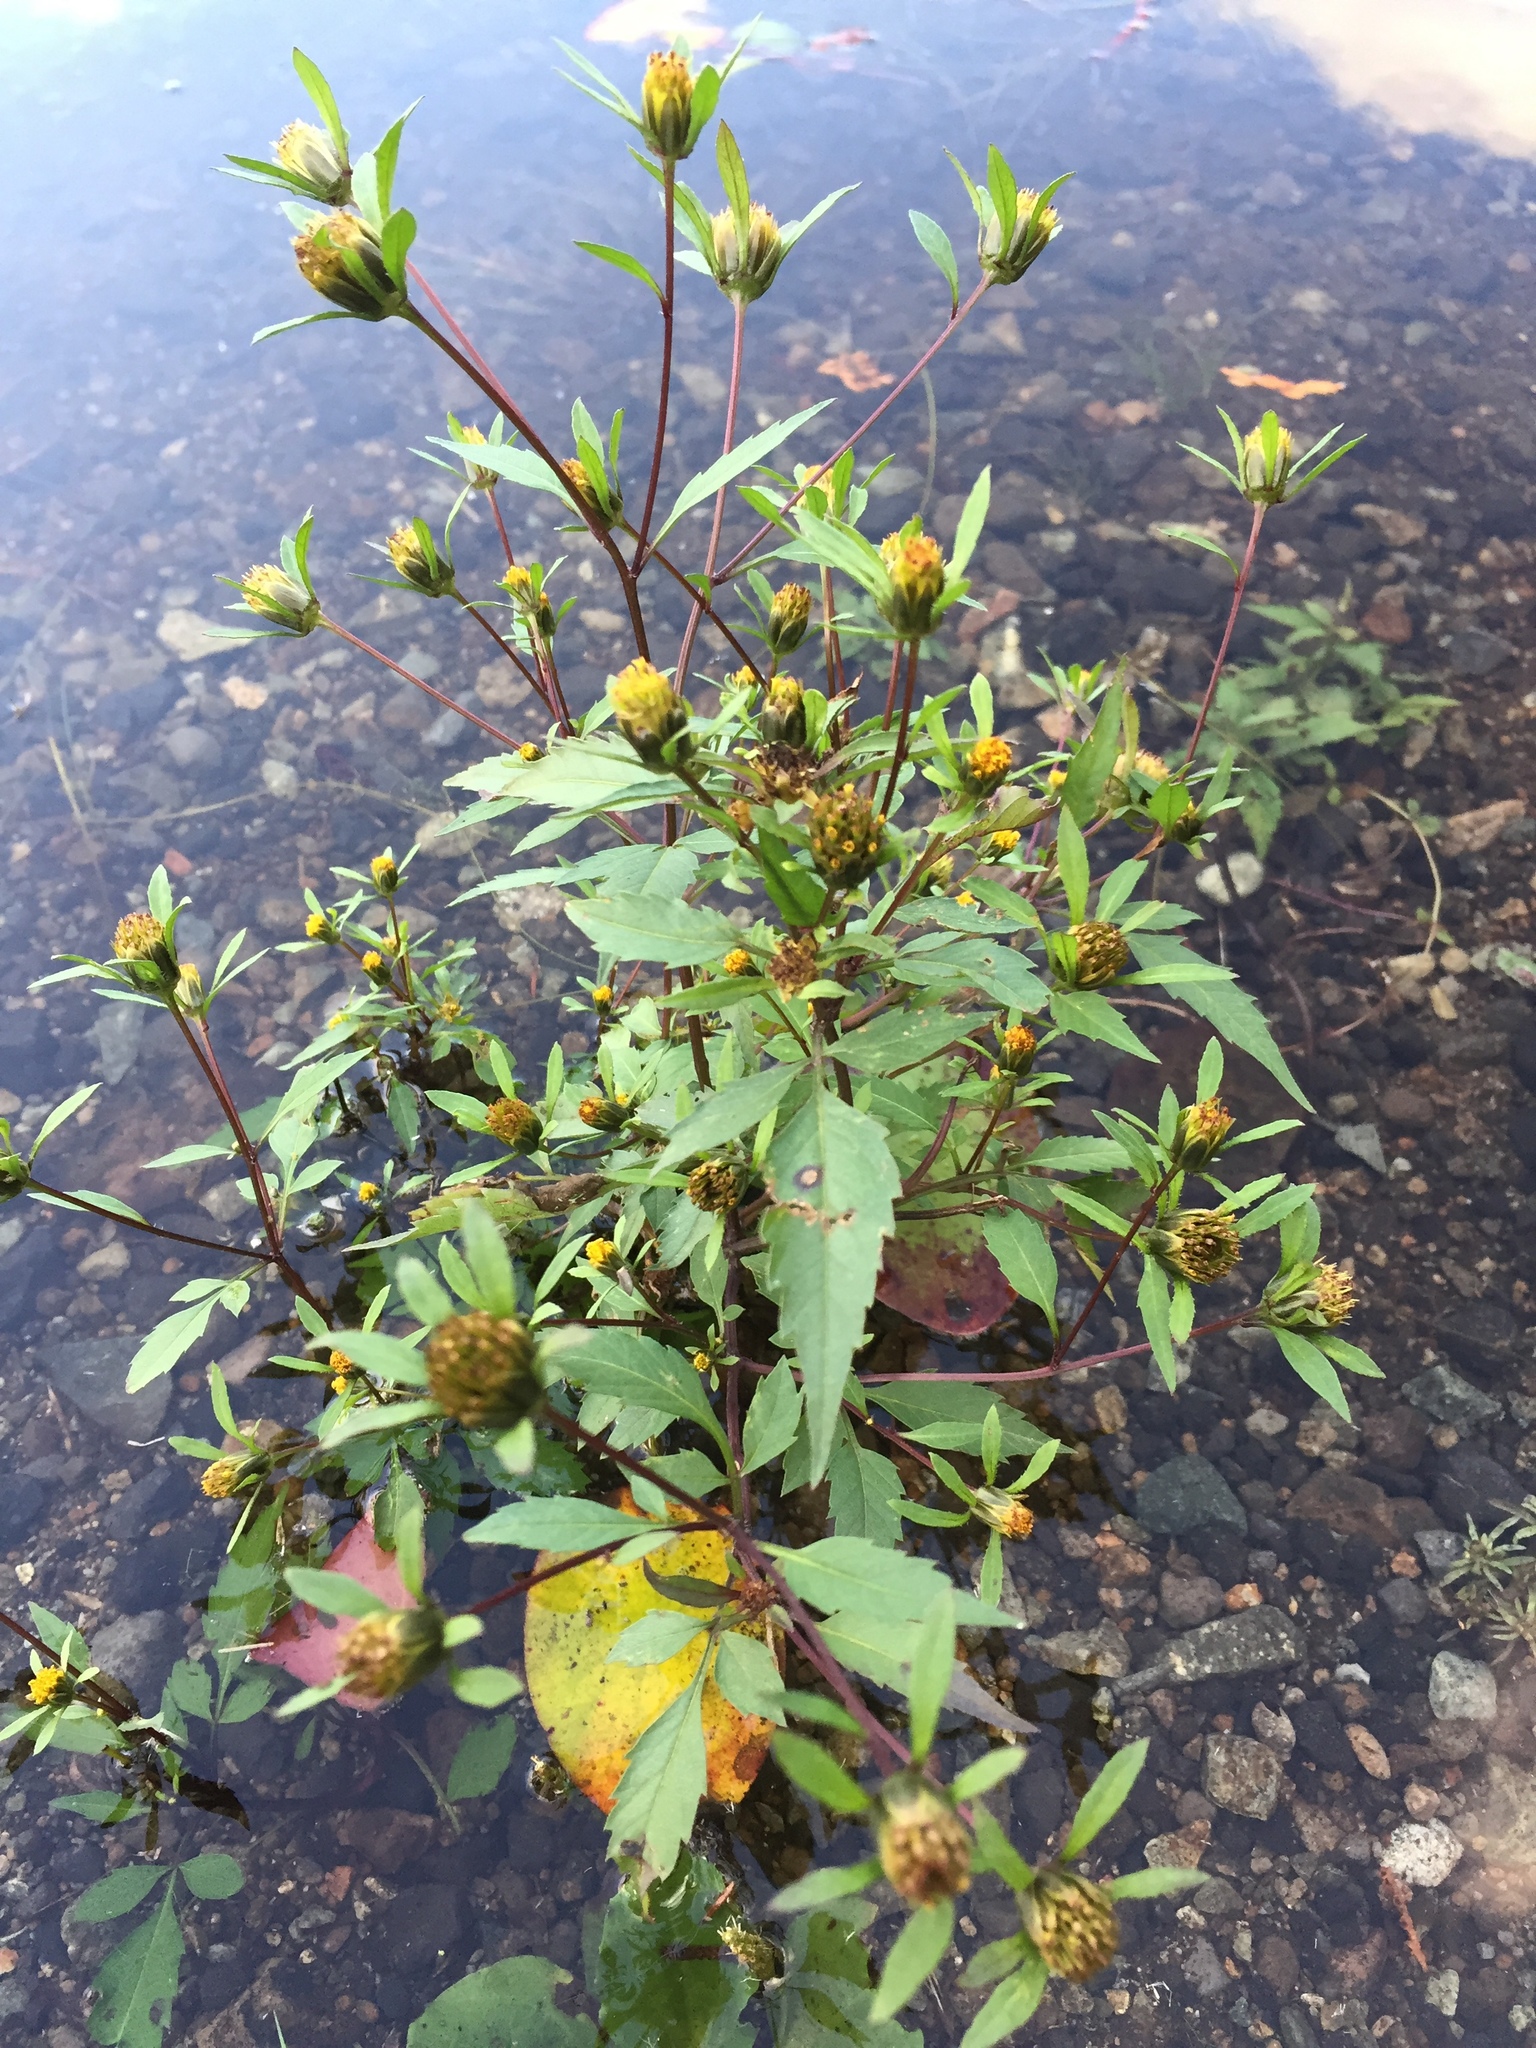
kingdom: Plantae
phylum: Tracheophyta
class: Magnoliopsida
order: Asterales
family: Asteraceae
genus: Bidens
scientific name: Bidens tripartita
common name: Trifid bur-marigold
